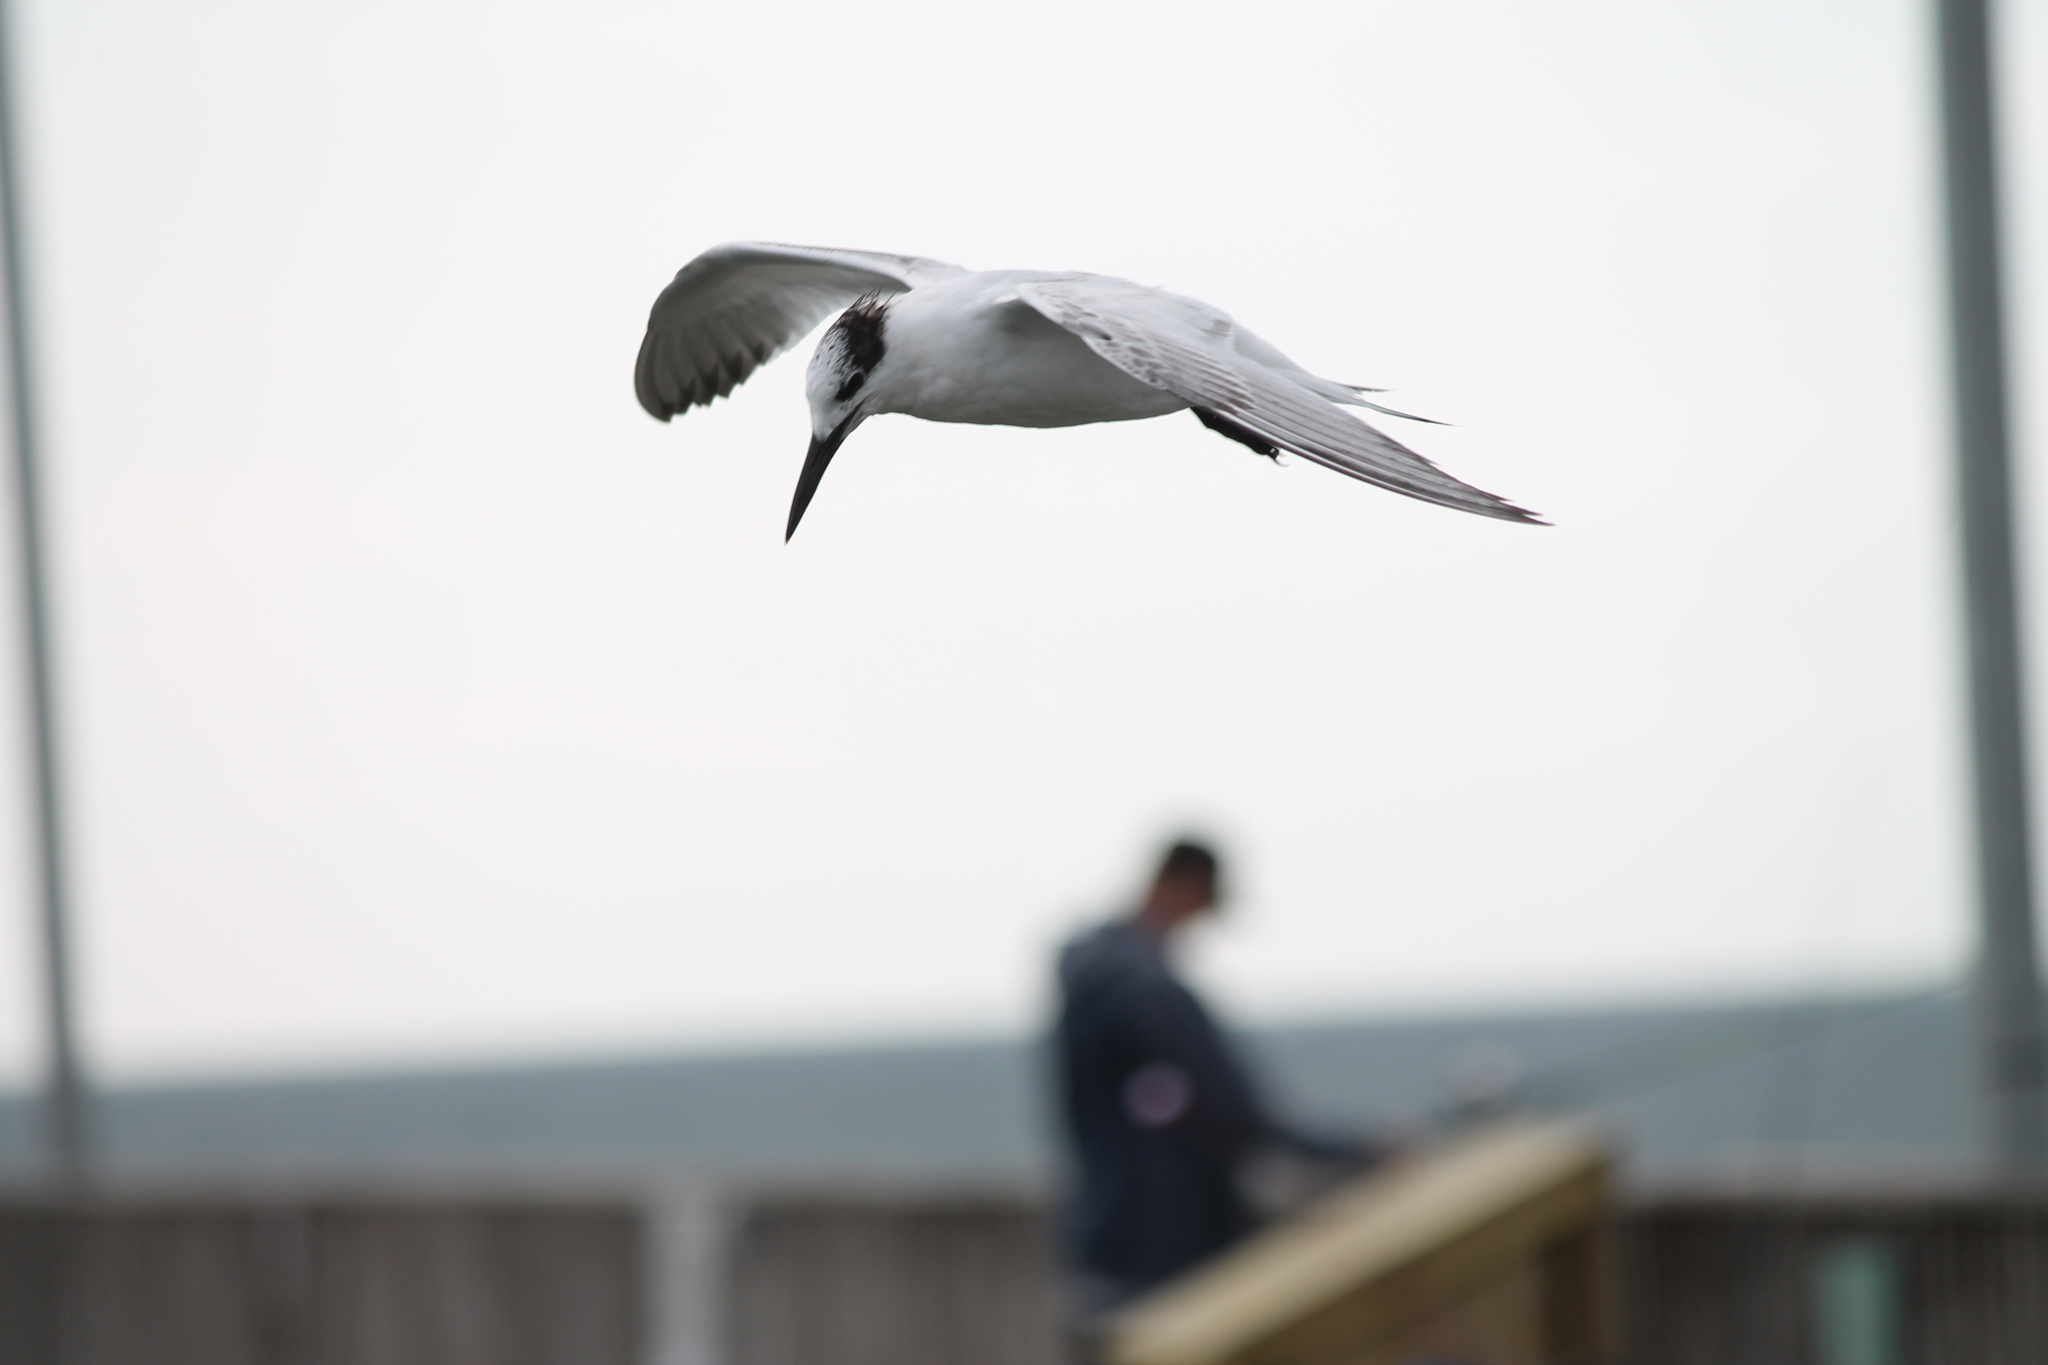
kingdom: Animalia
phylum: Chordata
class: Aves
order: Charadriiformes
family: Laridae
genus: Thalasseus
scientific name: Thalasseus sandvicensis
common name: Sandwich tern
